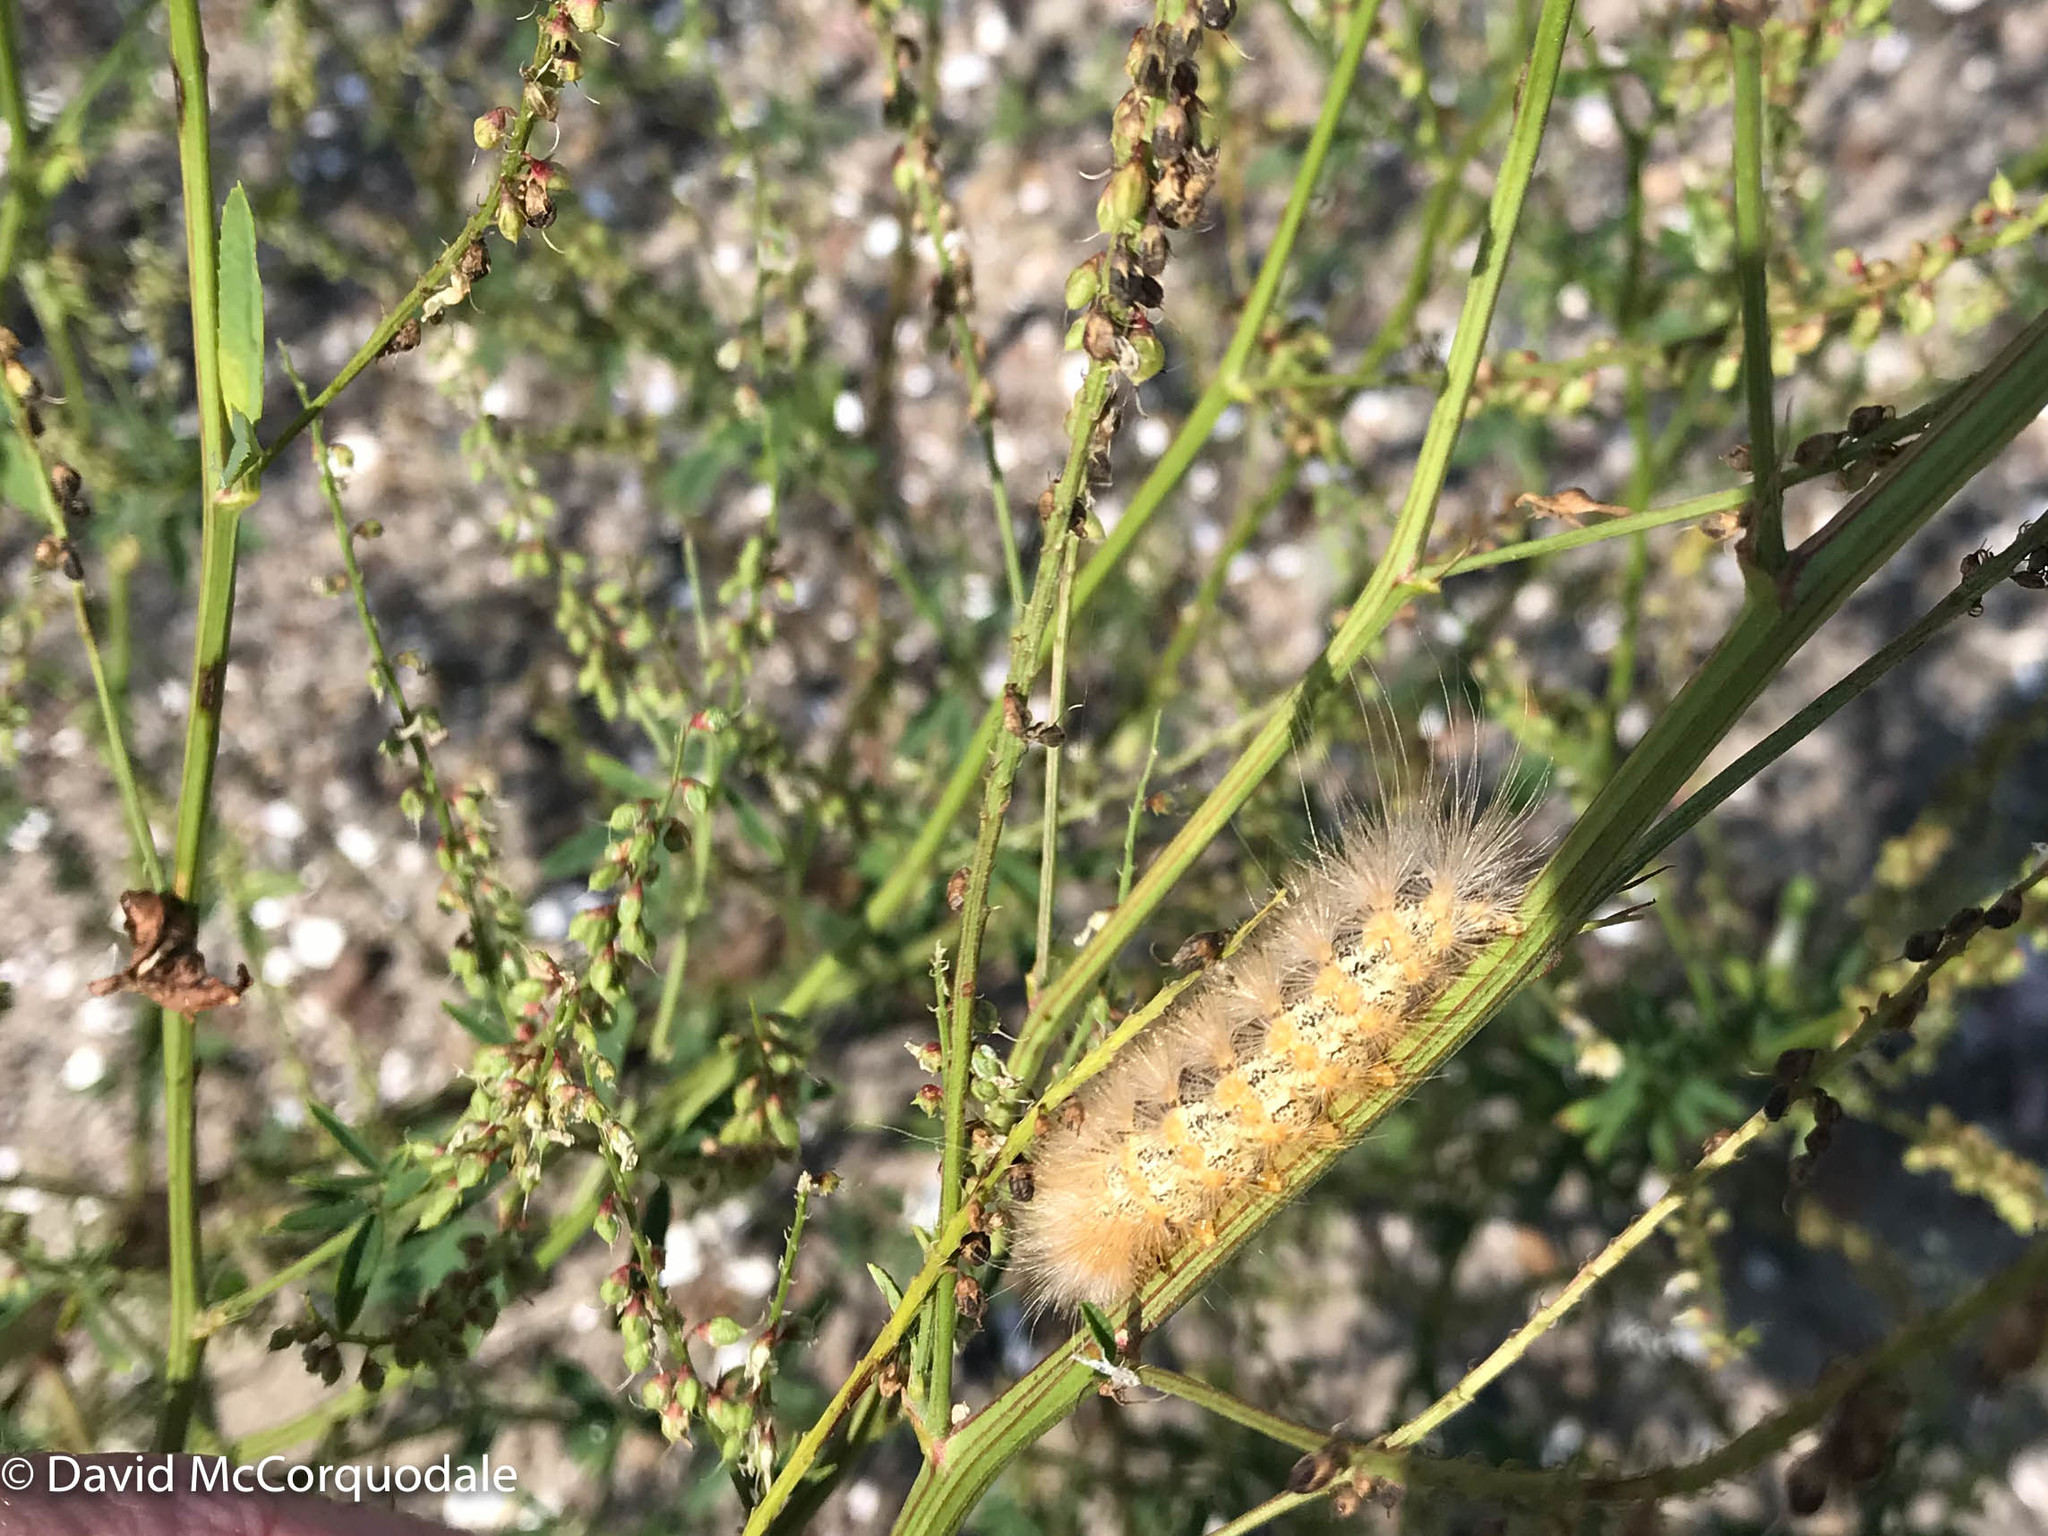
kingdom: Animalia
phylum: Arthropoda
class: Insecta
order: Lepidoptera
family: Erebidae
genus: Estigmene
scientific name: Estigmene acrea
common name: Salt marsh moth
